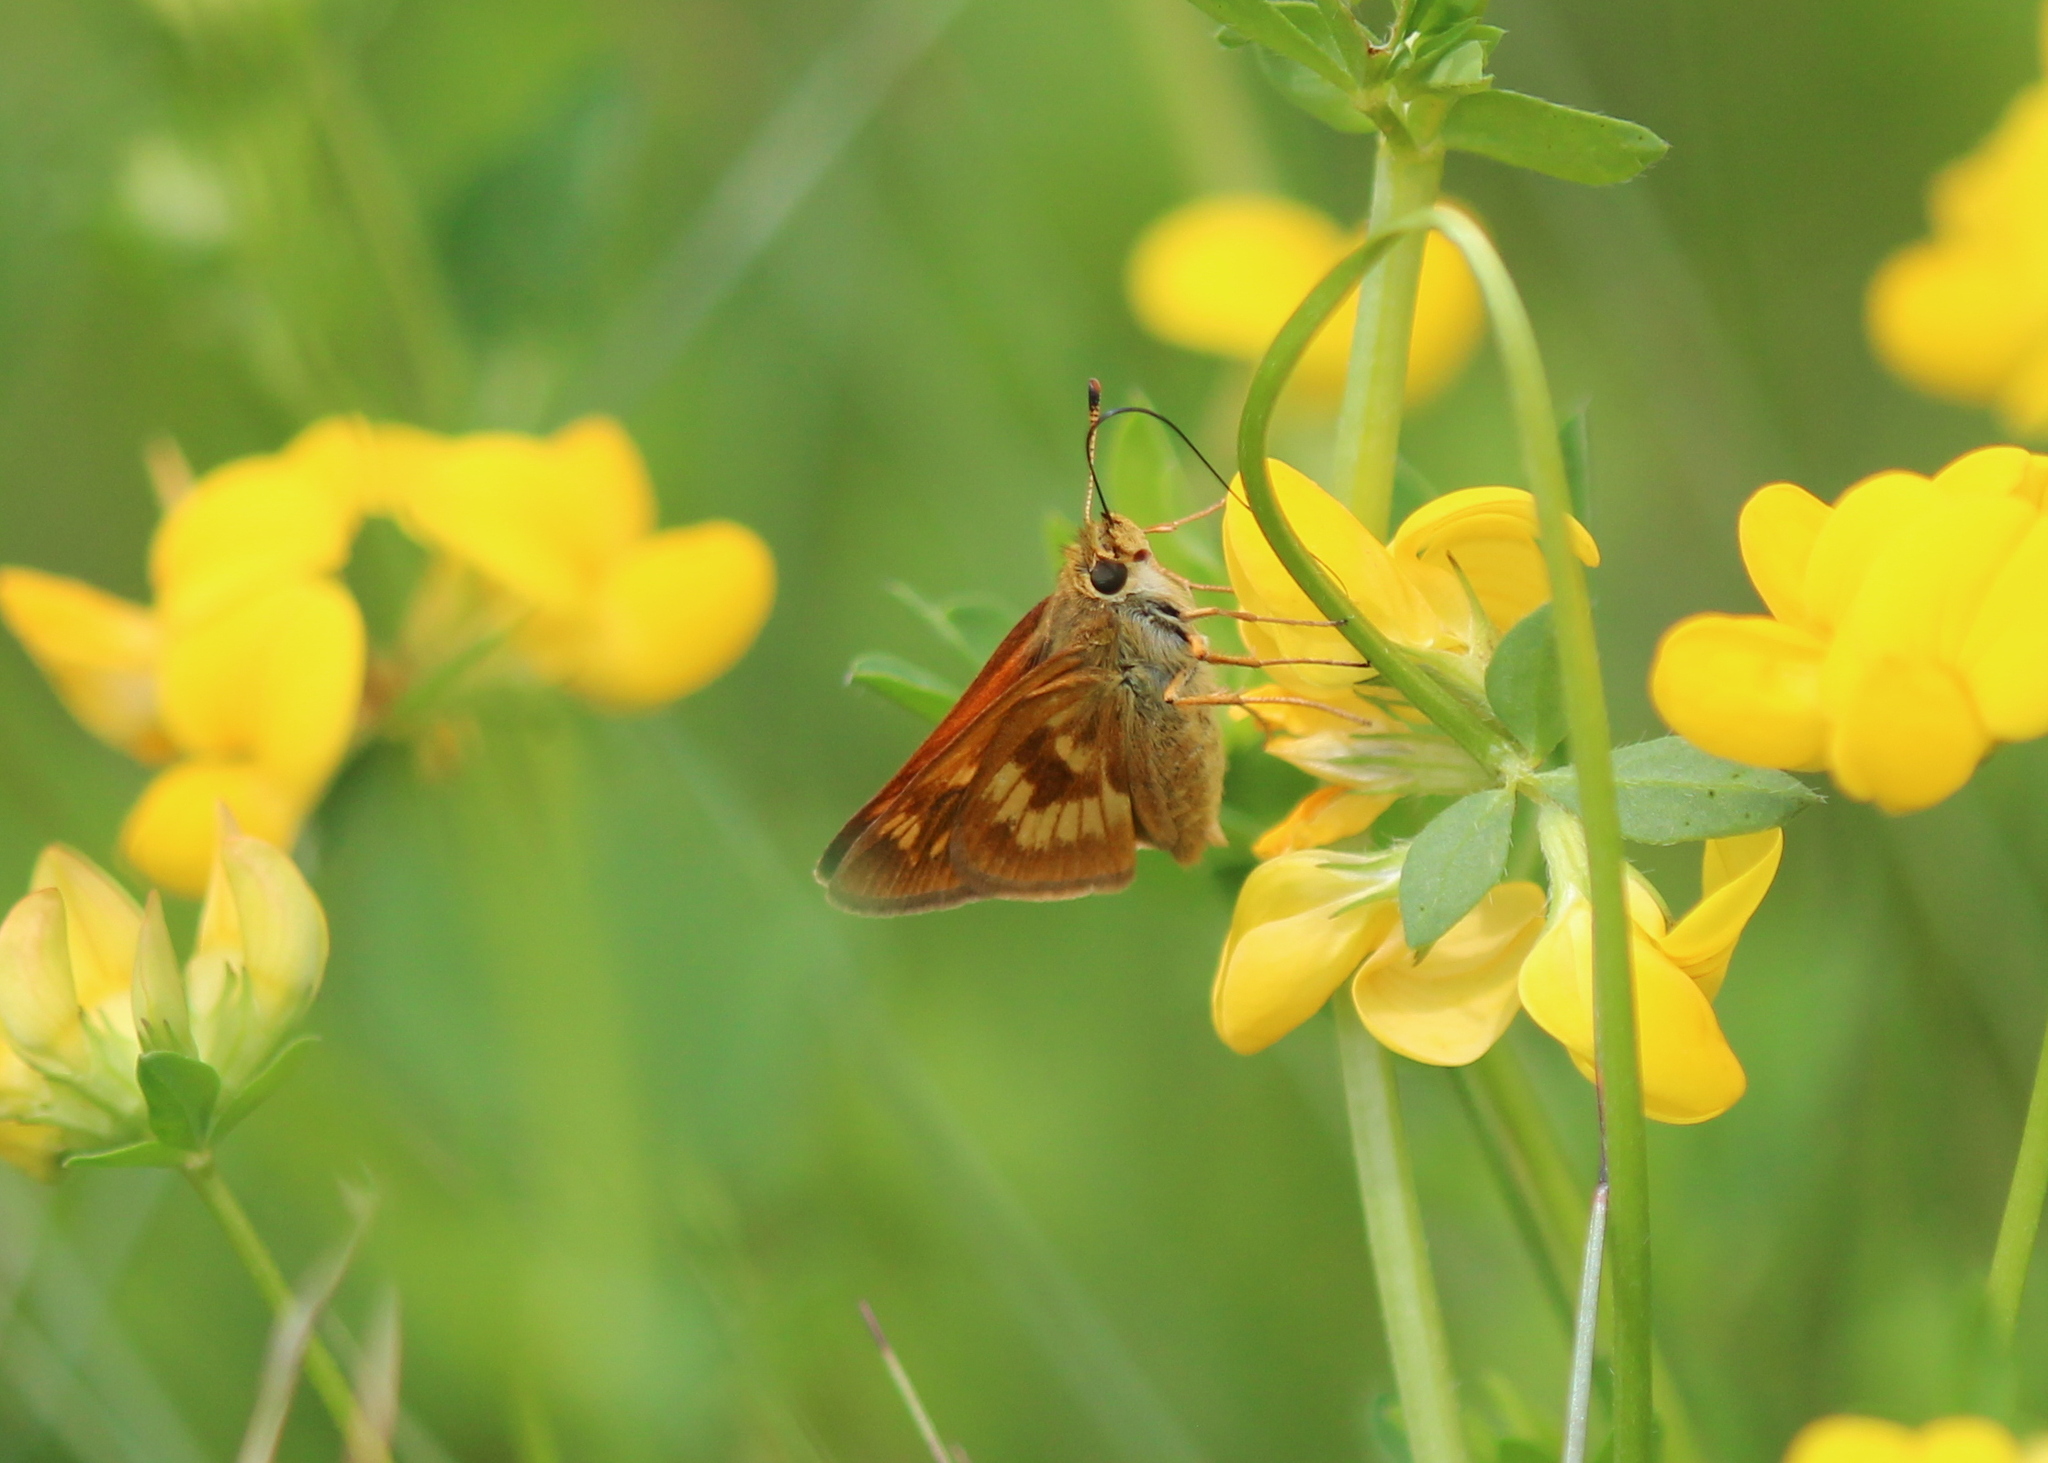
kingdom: Animalia
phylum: Arthropoda
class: Insecta
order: Lepidoptera
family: Hesperiidae
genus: Polites
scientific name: Polites mystic
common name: Long dash
